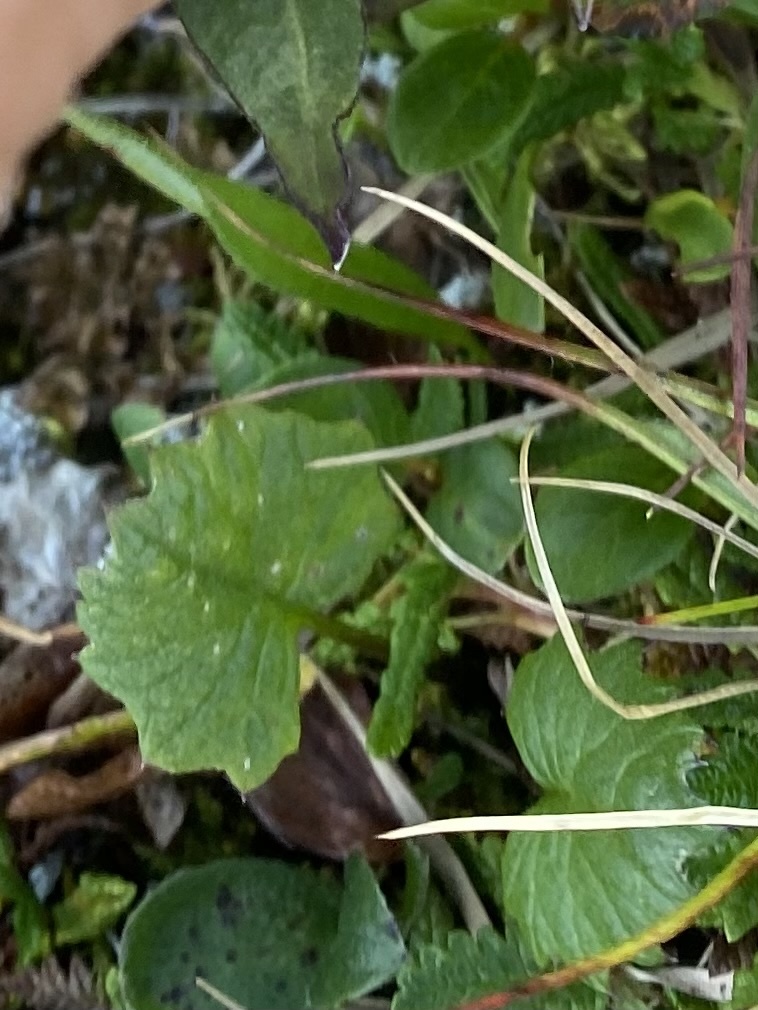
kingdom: Plantae
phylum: Tracheophyta
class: Magnoliopsida
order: Asterales
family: Asteraceae
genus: Endocellion
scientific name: Endocellion glaciale
